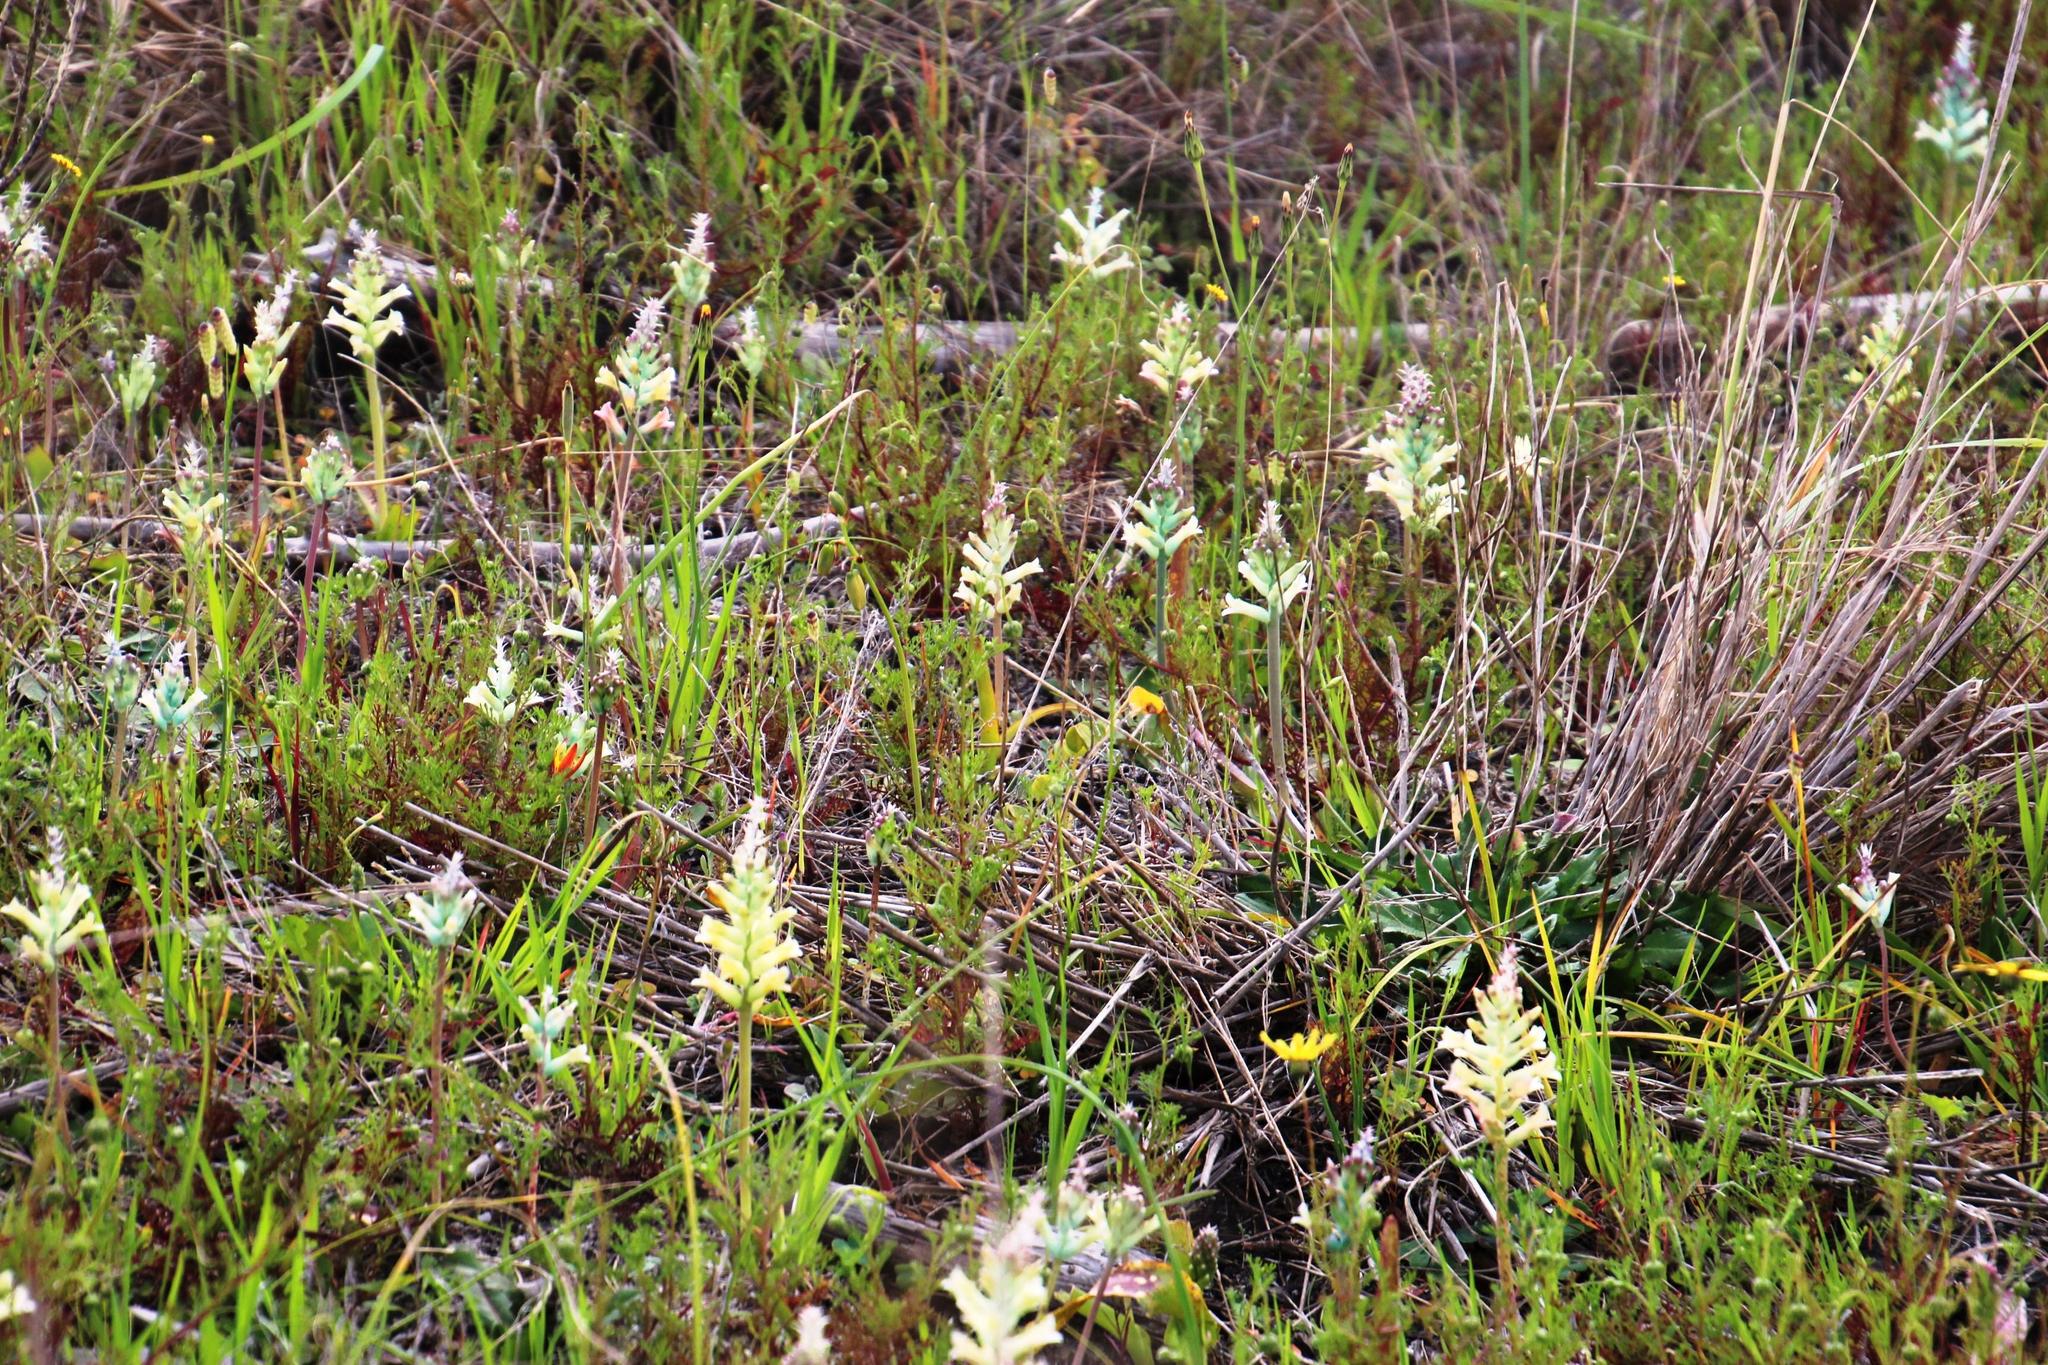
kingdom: Plantae
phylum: Tracheophyta
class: Liliopsida
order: Asparagales
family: Asparagaceae
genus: Lachenalia
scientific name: Lachenalia orchioides
